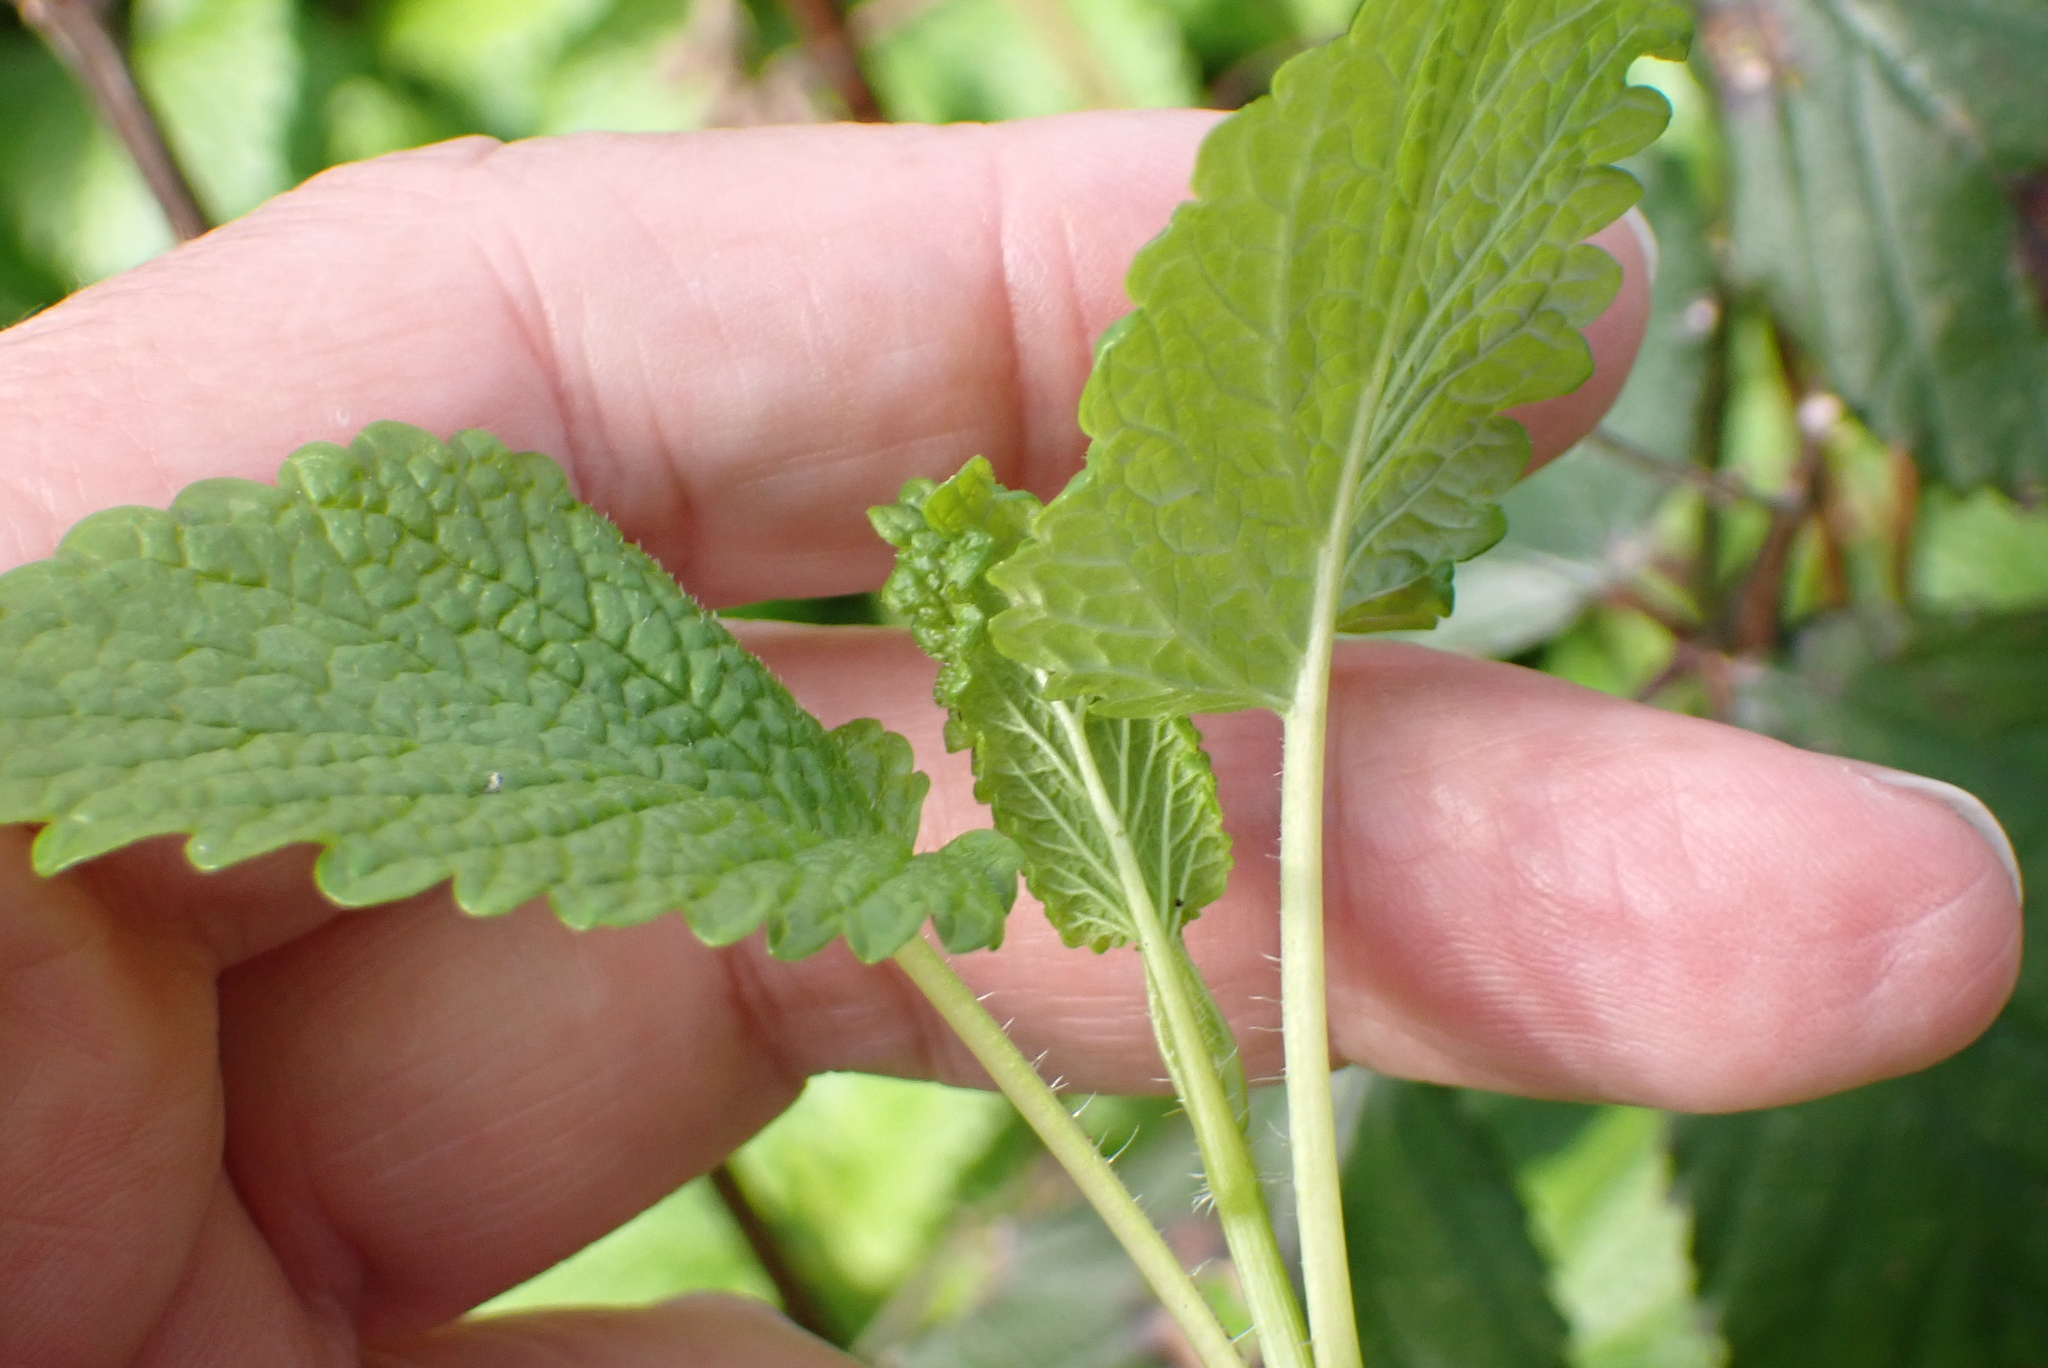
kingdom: Plantae
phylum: Tracheophyta
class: Magnoliopsida
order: Lamiales
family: Lamiaceae
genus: Melissa
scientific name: Melissa officinalis
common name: Balm
